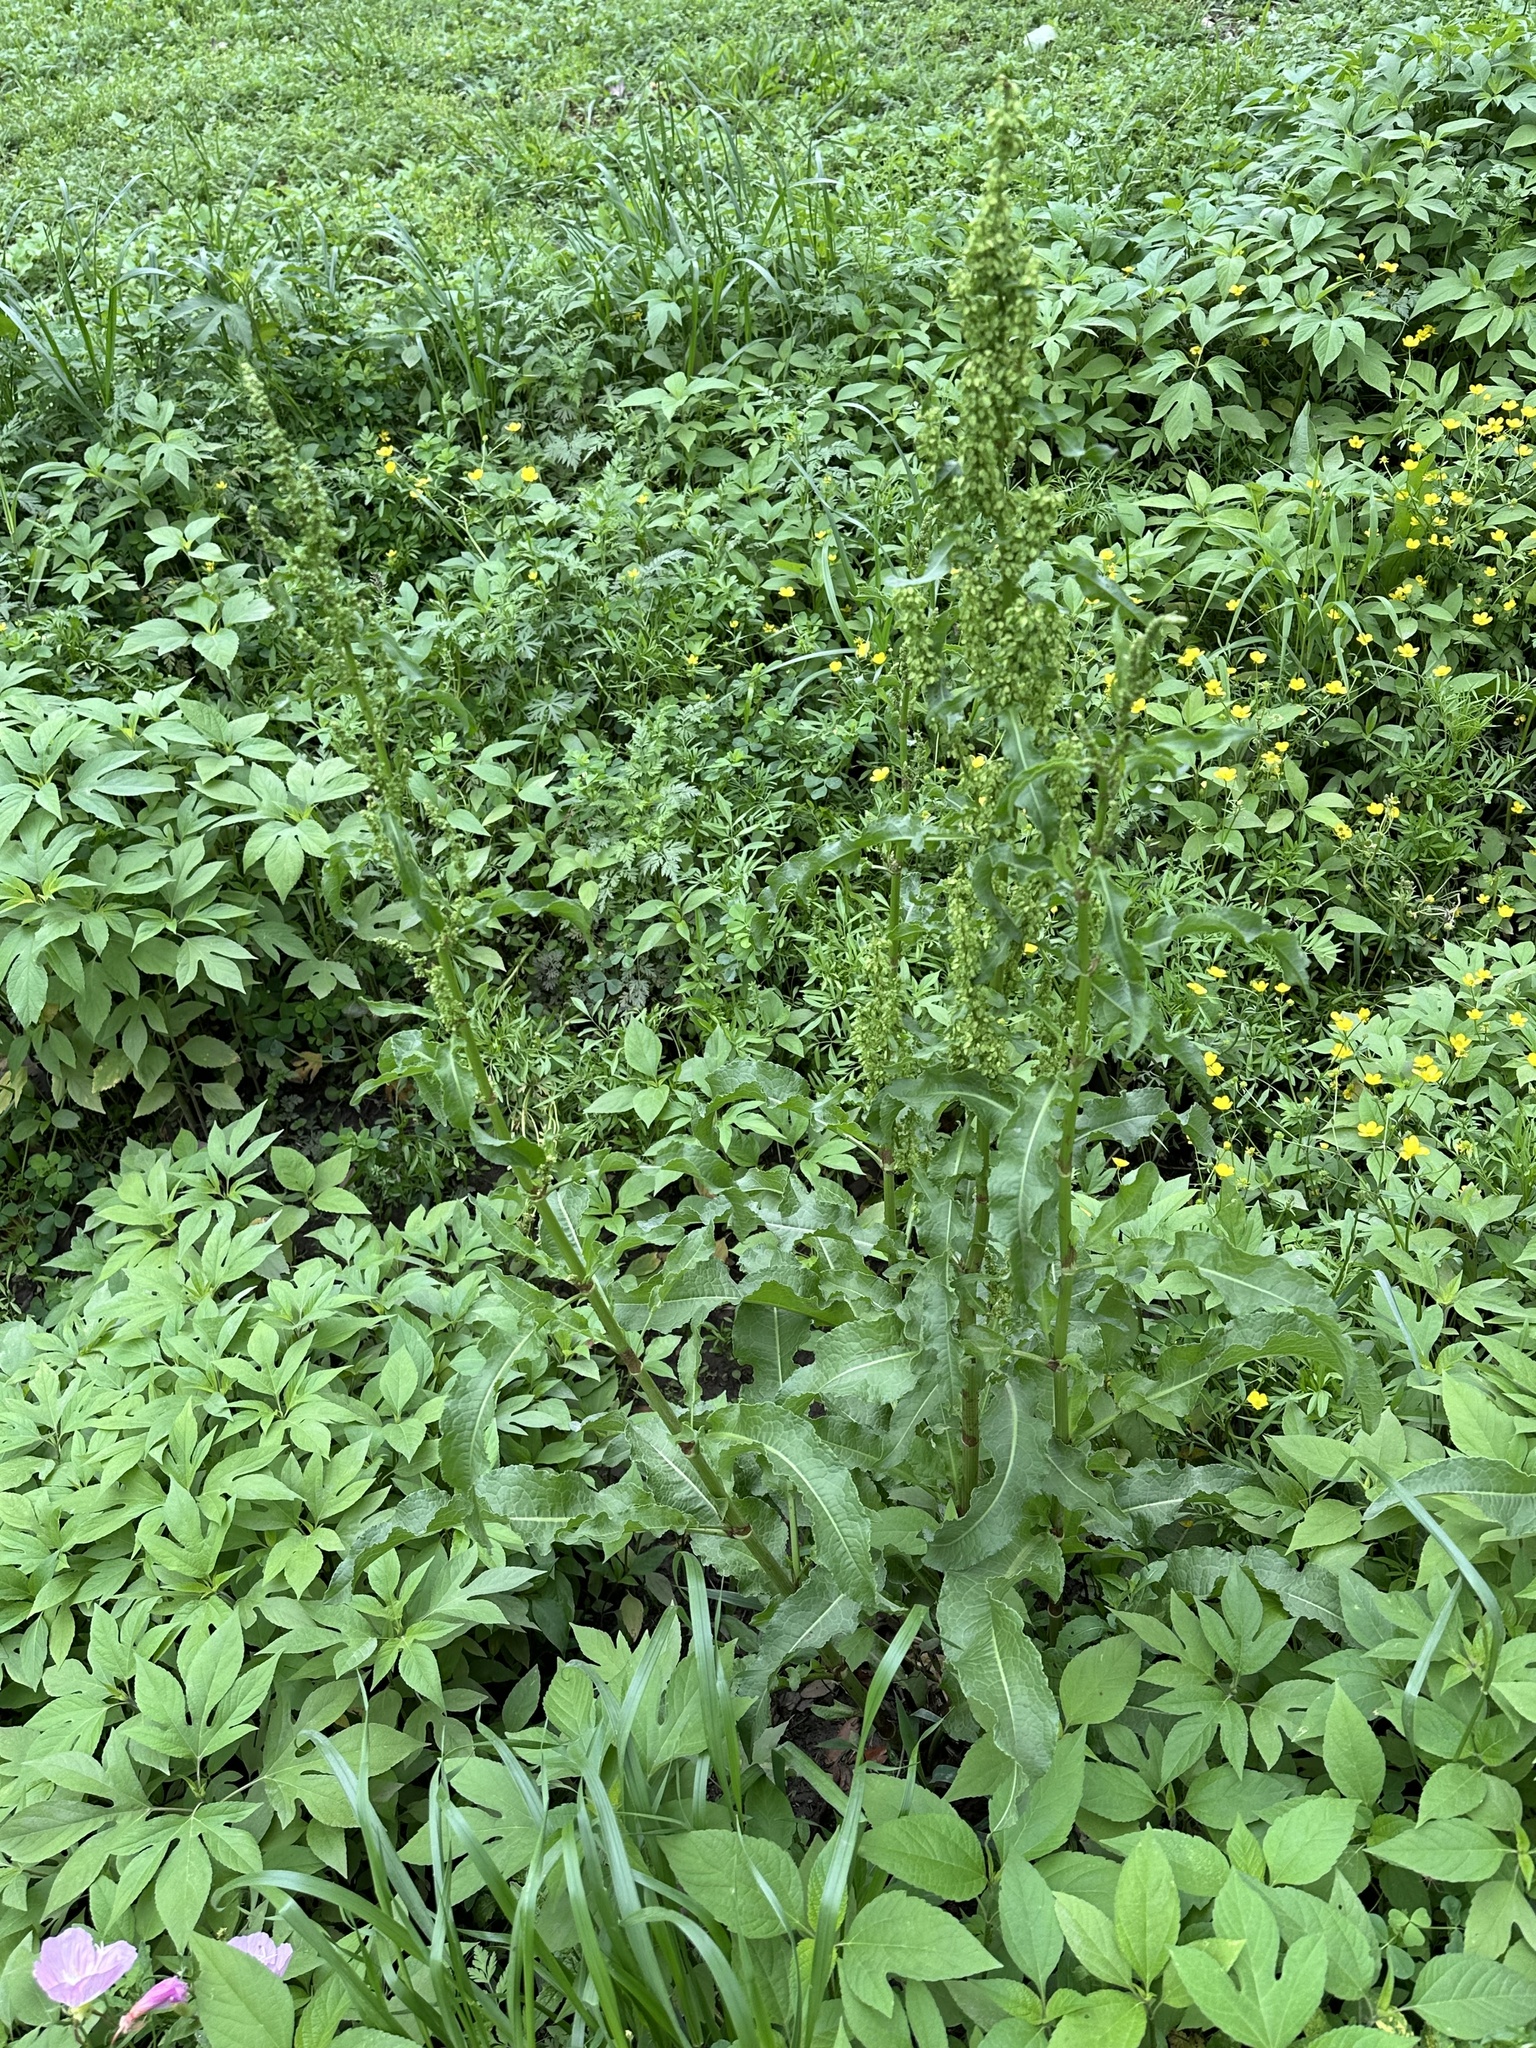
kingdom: Plantae
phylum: Tracheophyta
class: Magnoliopsida
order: Caryophyllales
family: Polygonaceae
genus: Rumex
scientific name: Rumex altissimus
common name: Smooth dock
